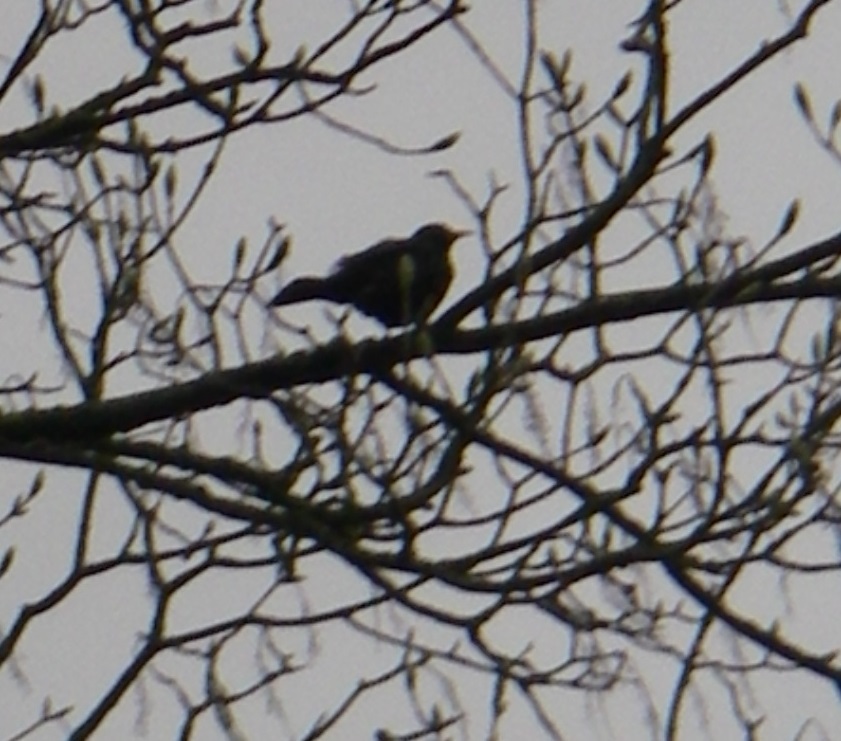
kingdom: Animalia
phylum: Chordata
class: Aves
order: Passeriformes
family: Turdidae
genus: Turdus
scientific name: Turdus merula
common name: Common blackbird
